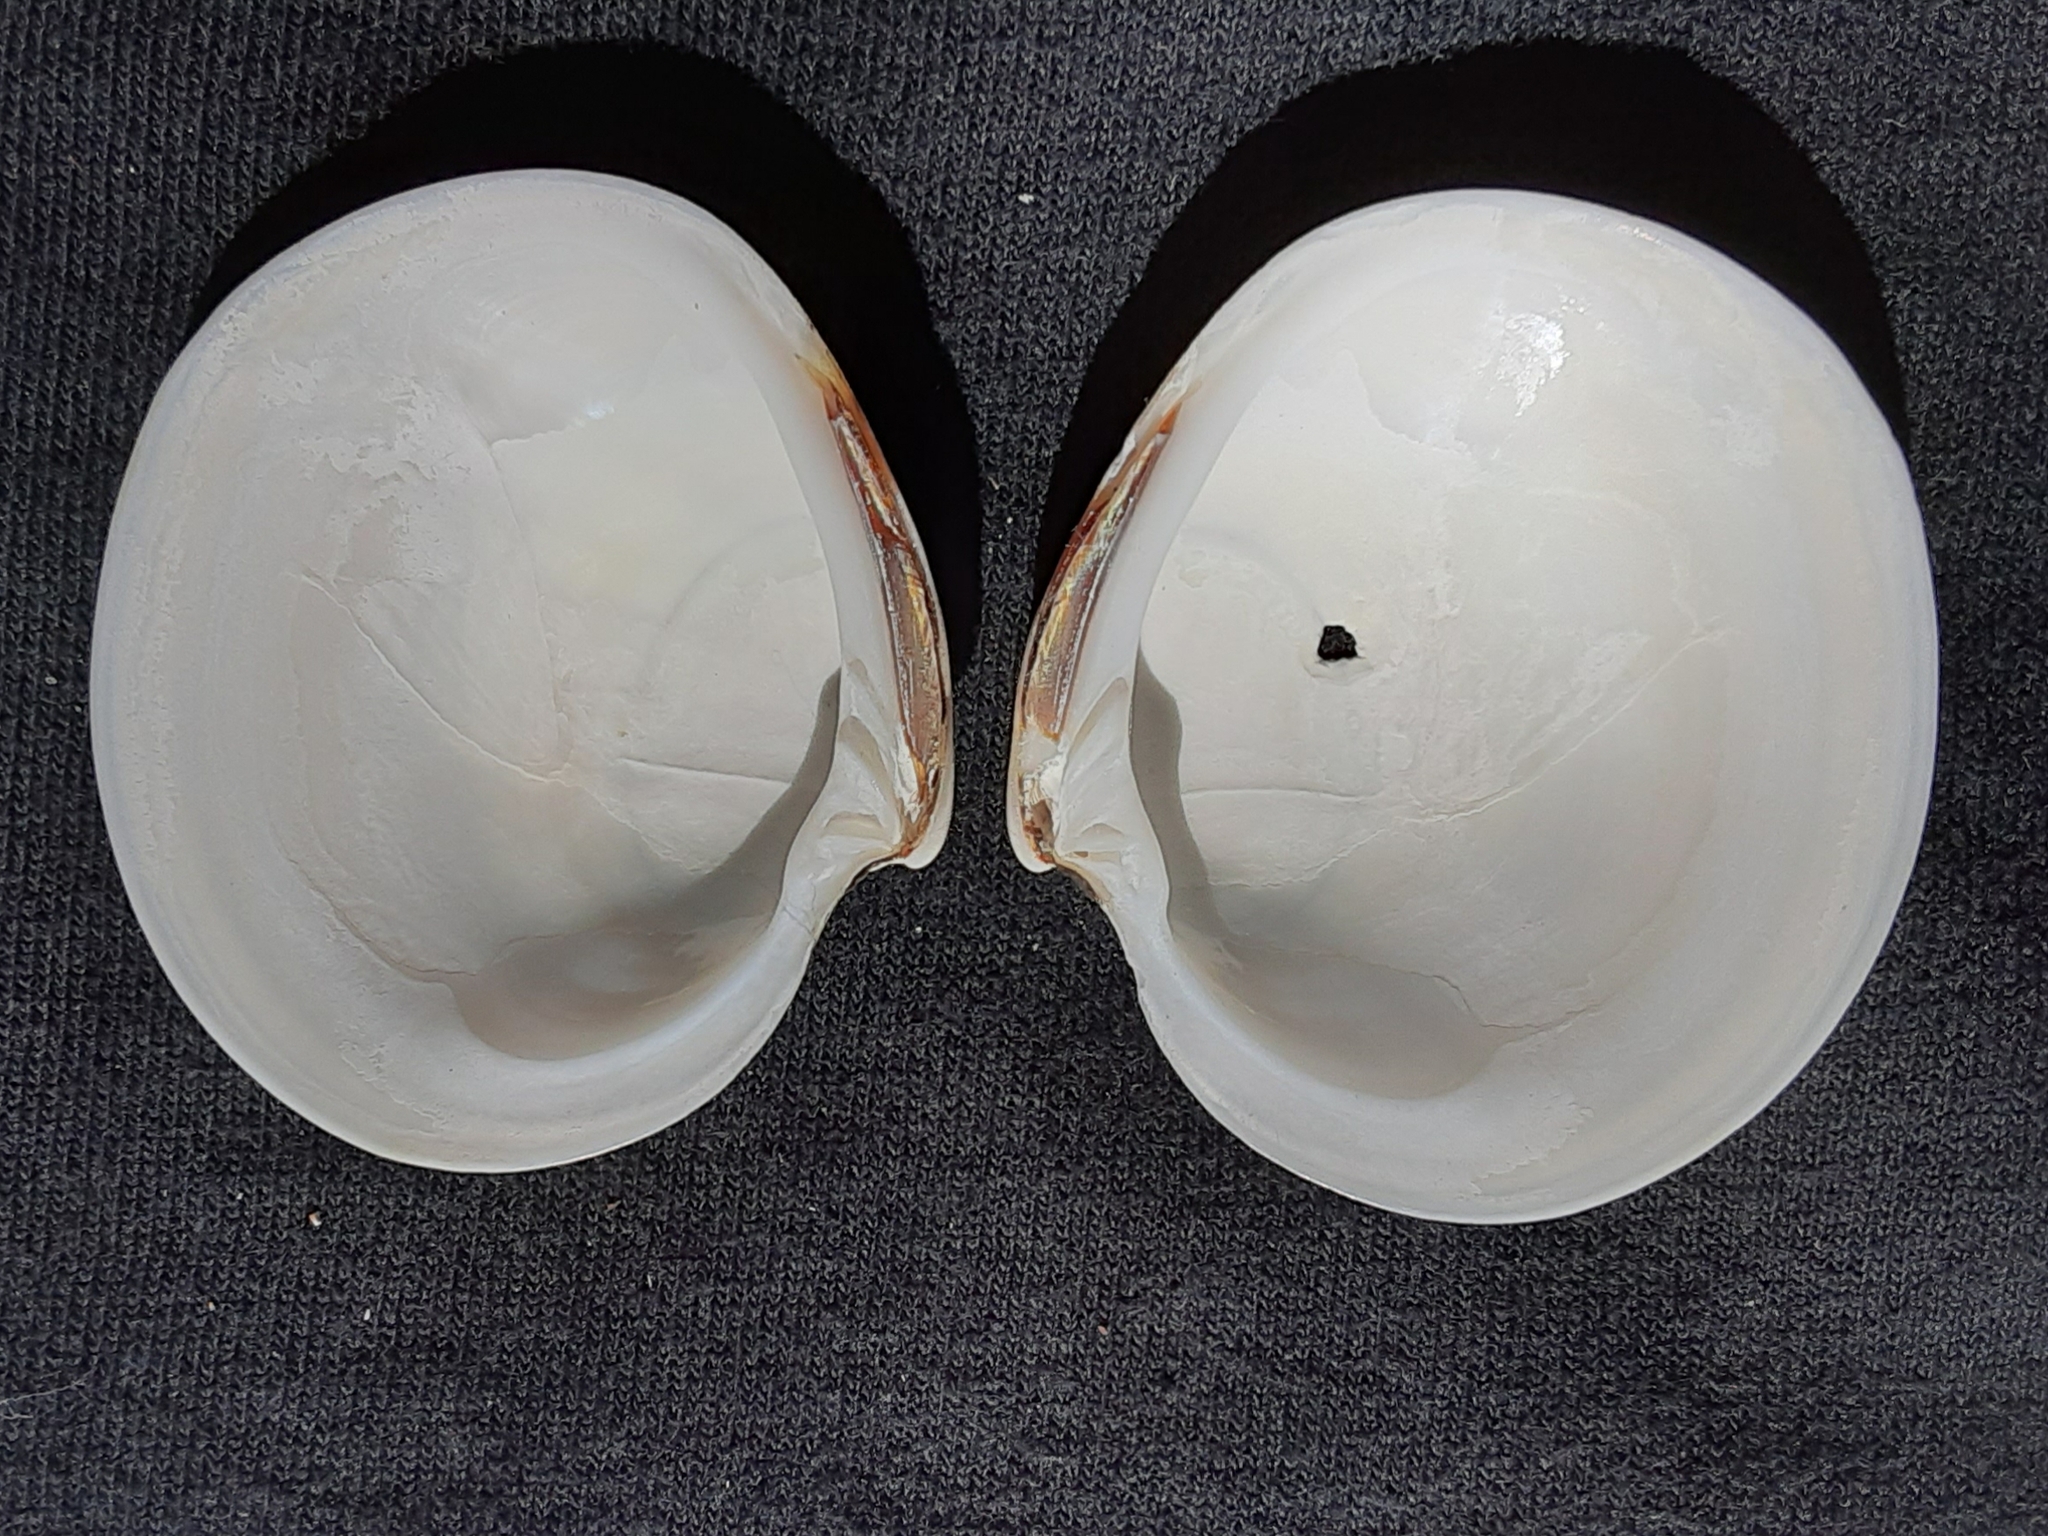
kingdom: Animalia
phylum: Mollusca
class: Bivalvia
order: Venerida
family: Veneridae
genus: Dosinia
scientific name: Dosinia discus
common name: Disk dosinia
